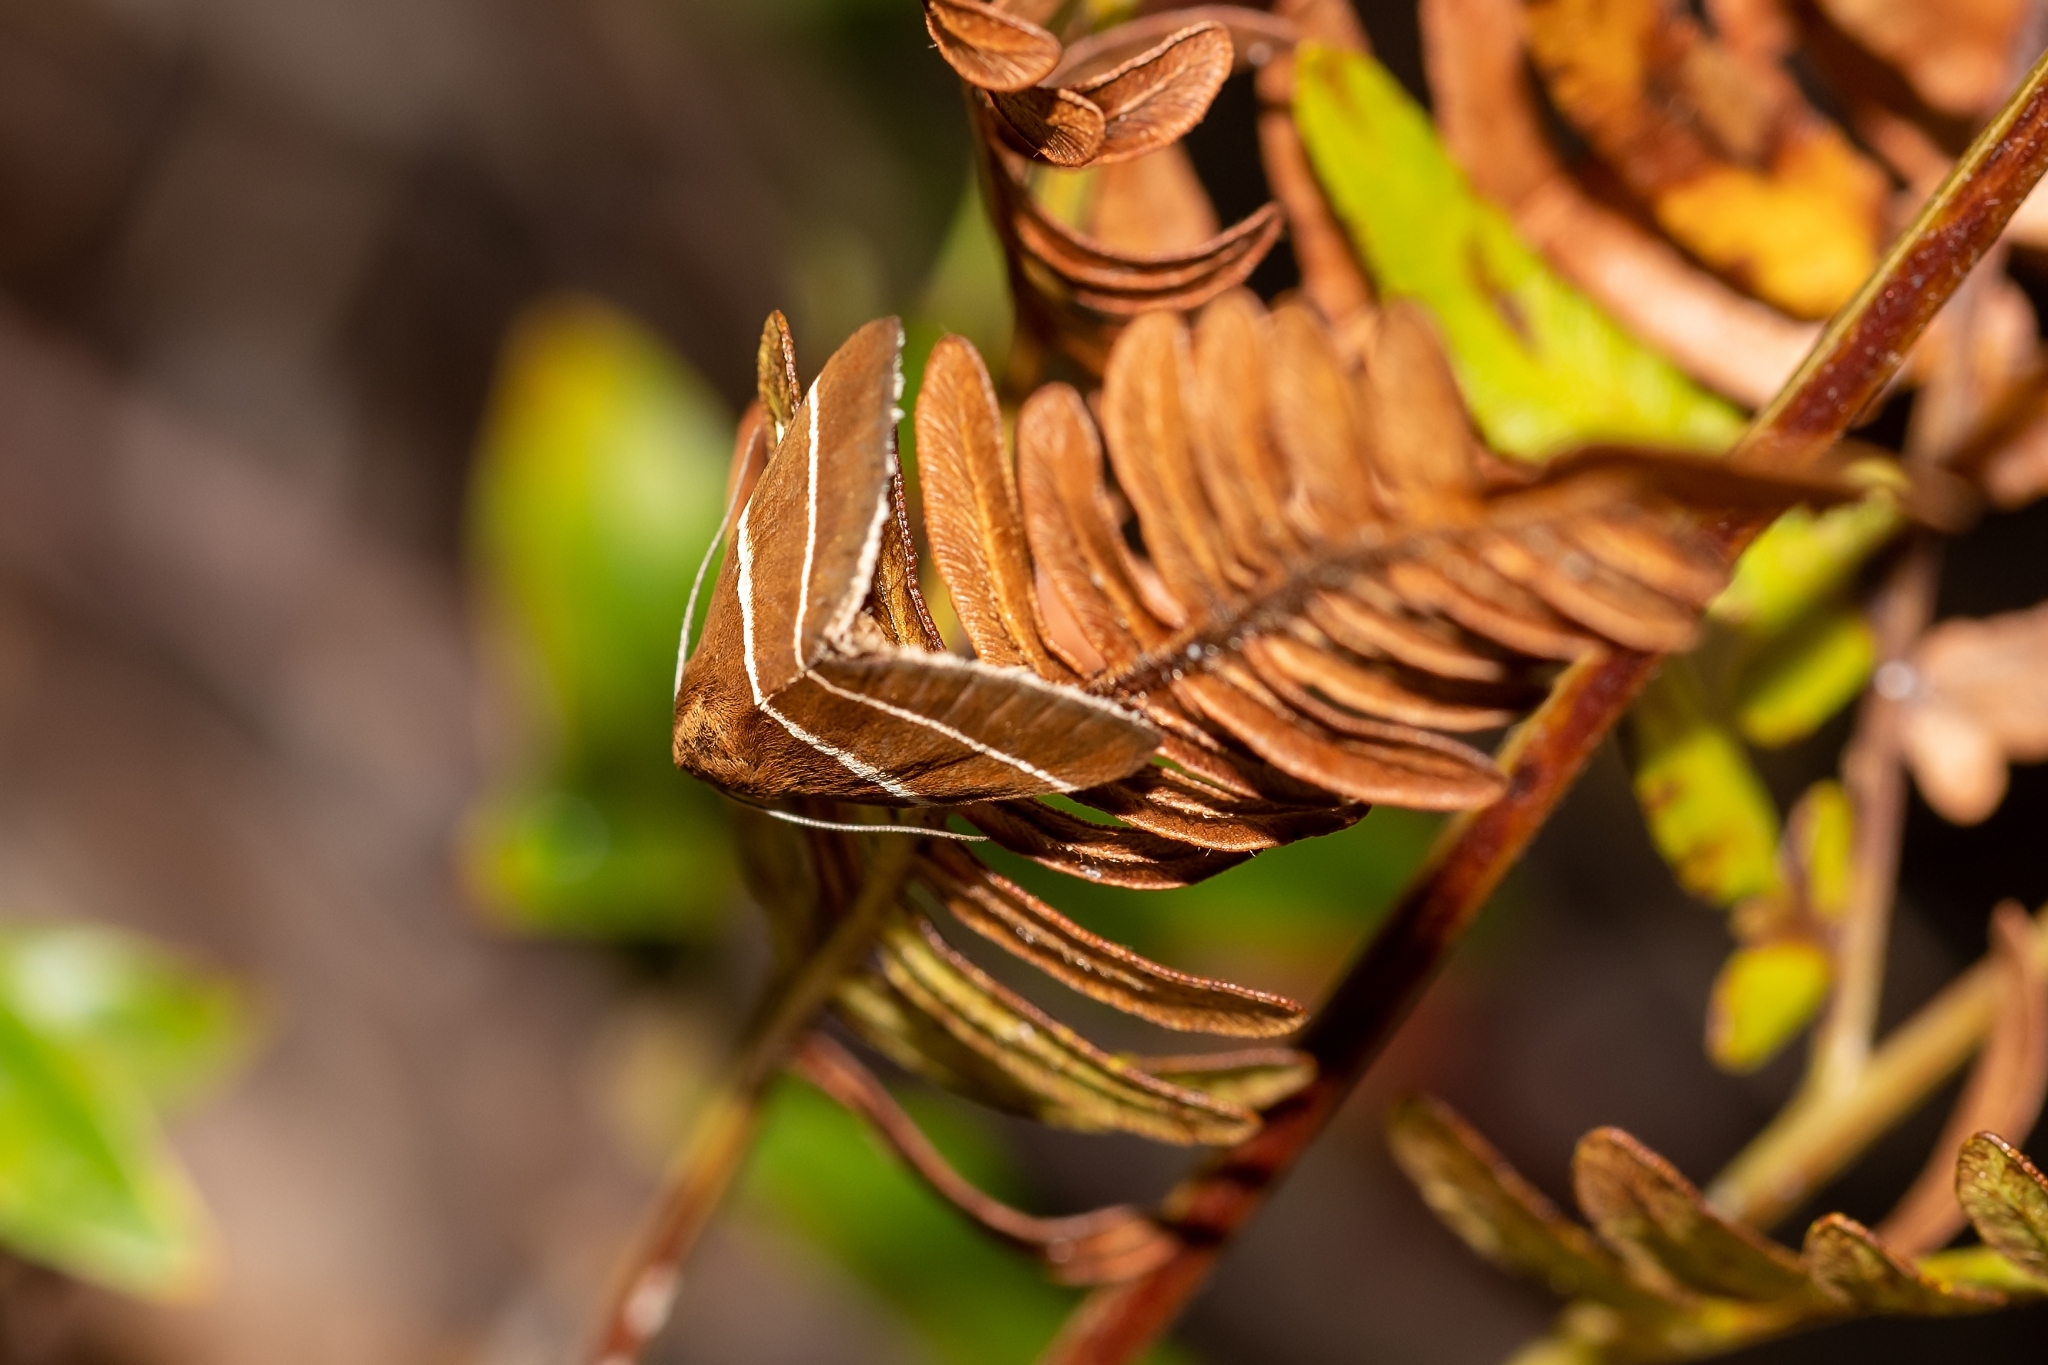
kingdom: Animalia
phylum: Arthropoda
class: Insecta
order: Lepidoptera
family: Erebidae
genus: Argyrostrotis
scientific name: Argyrostrotis quadrifilaris
